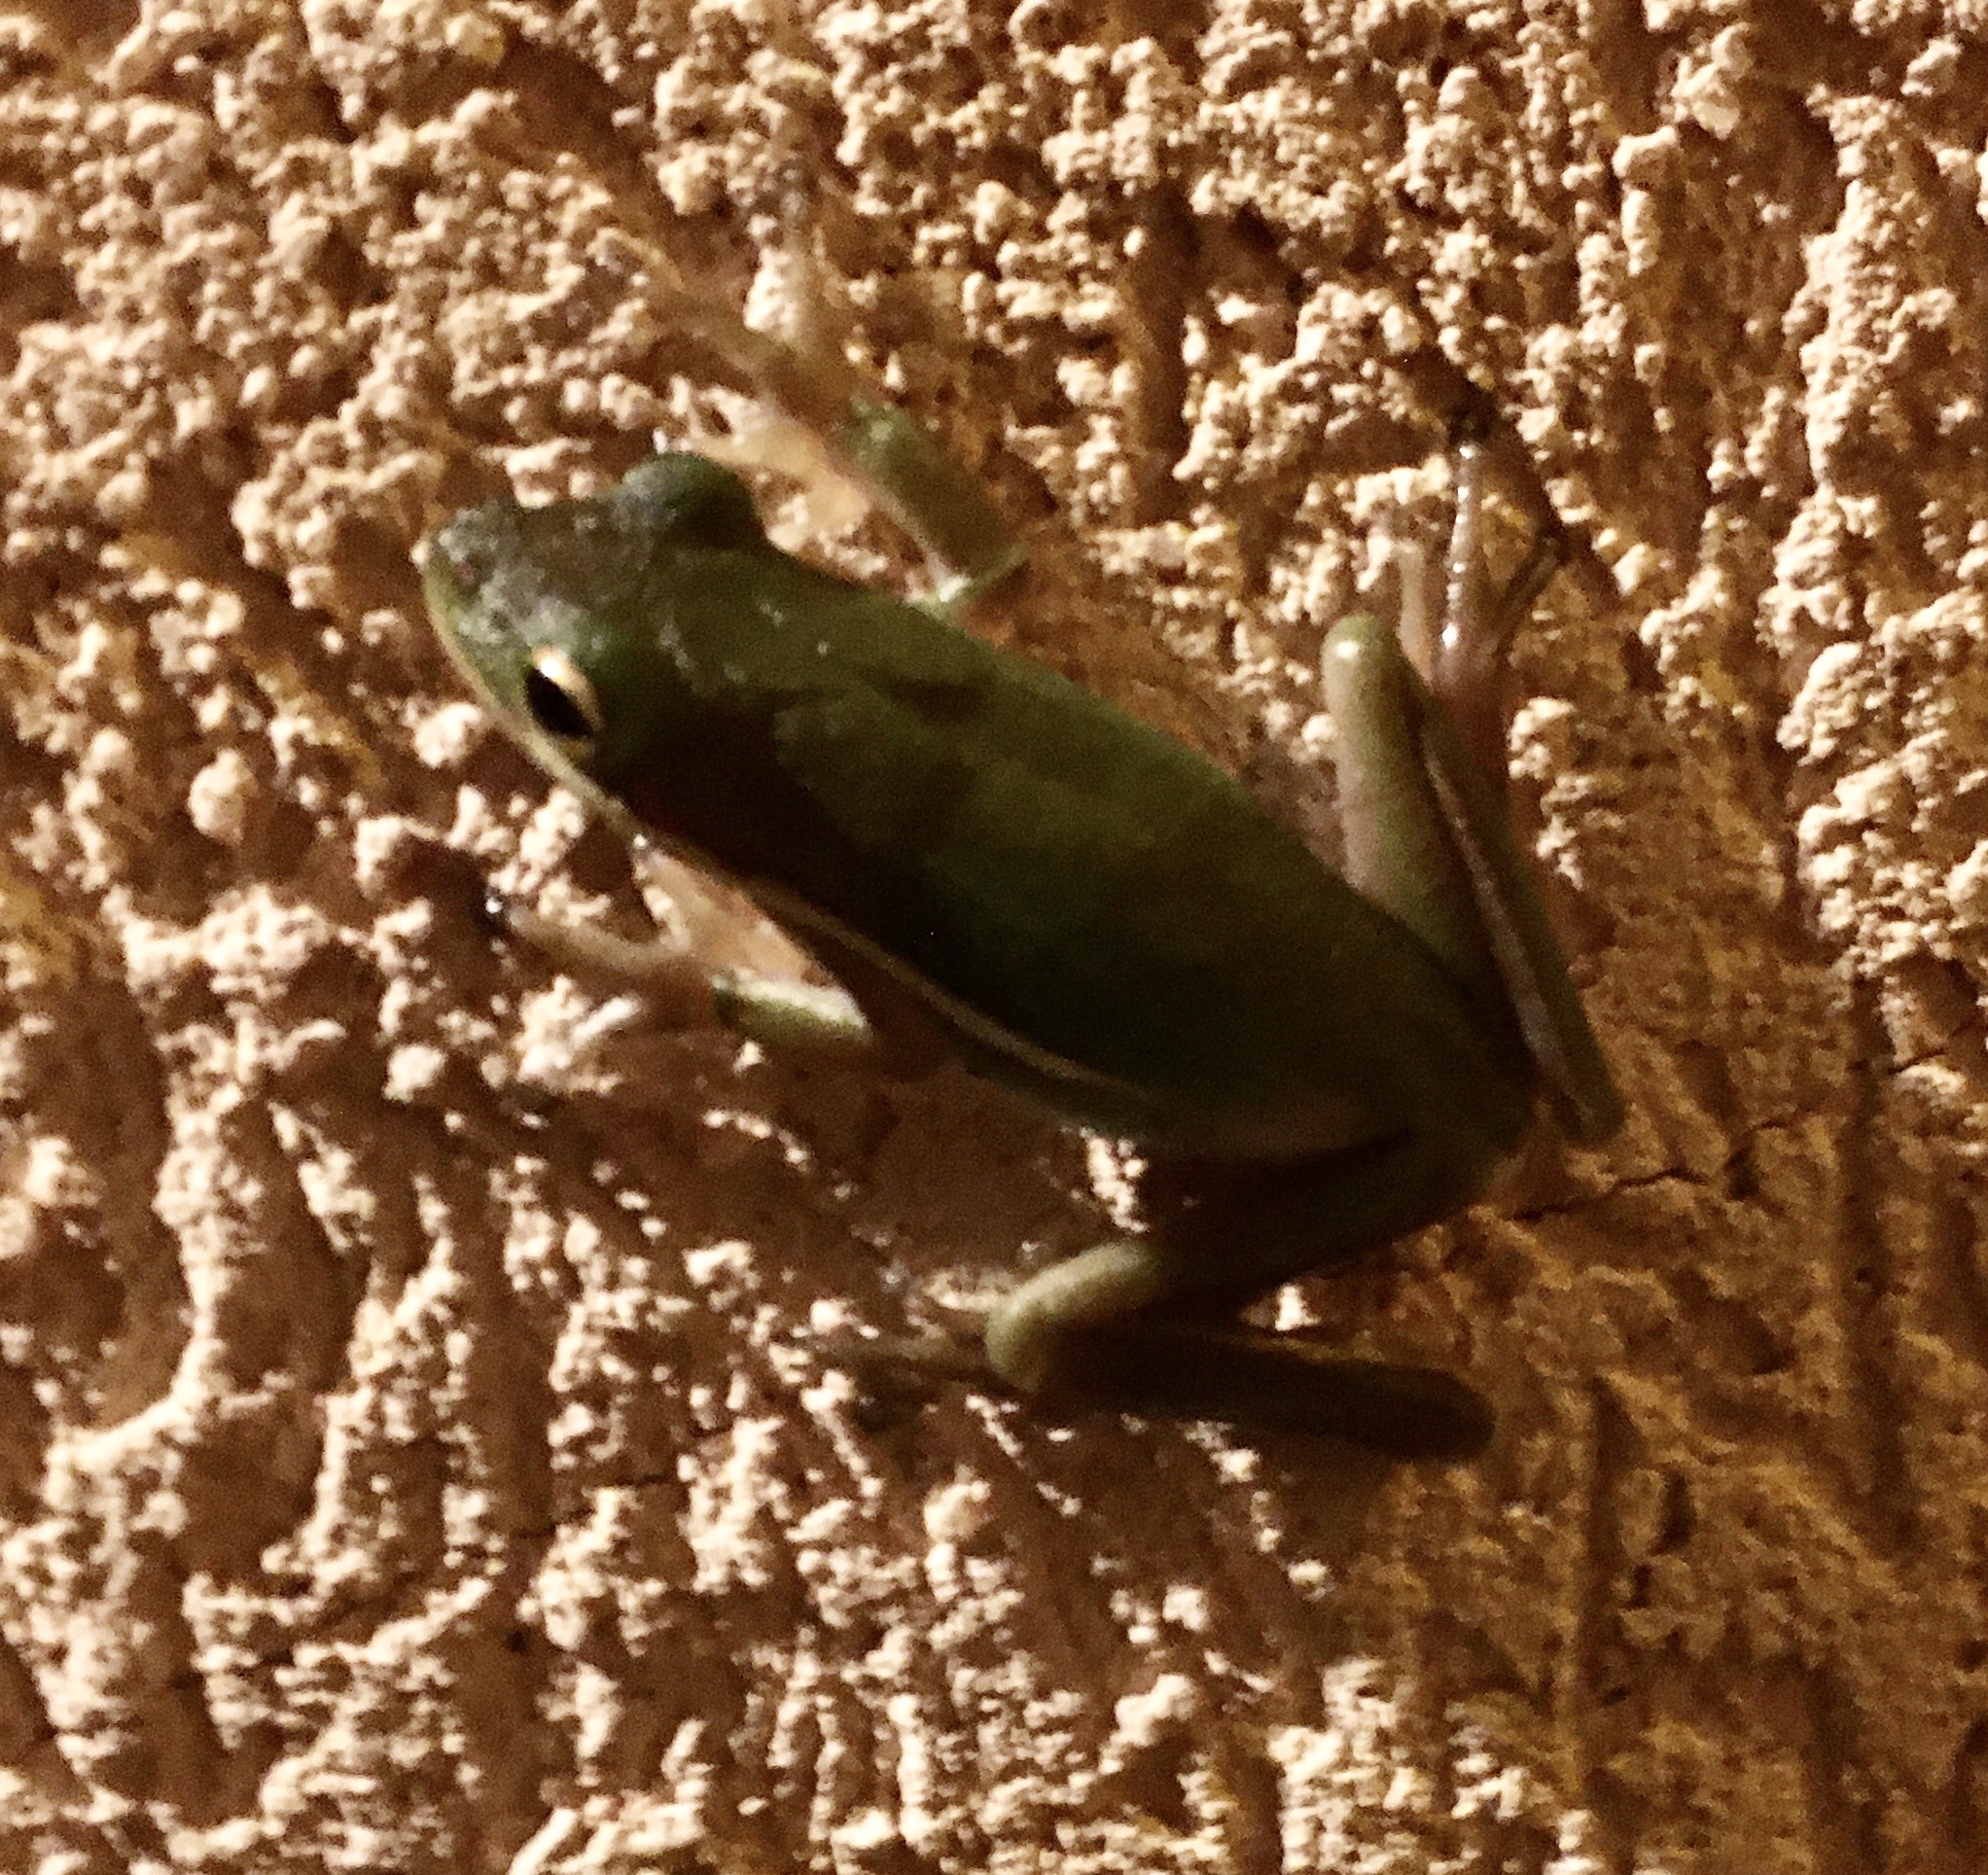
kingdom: Animalia
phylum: Chordata
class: Amphibia
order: Anura
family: Hylidae
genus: Dryophytes
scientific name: Dryophytes cinereus
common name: Green treefrog
